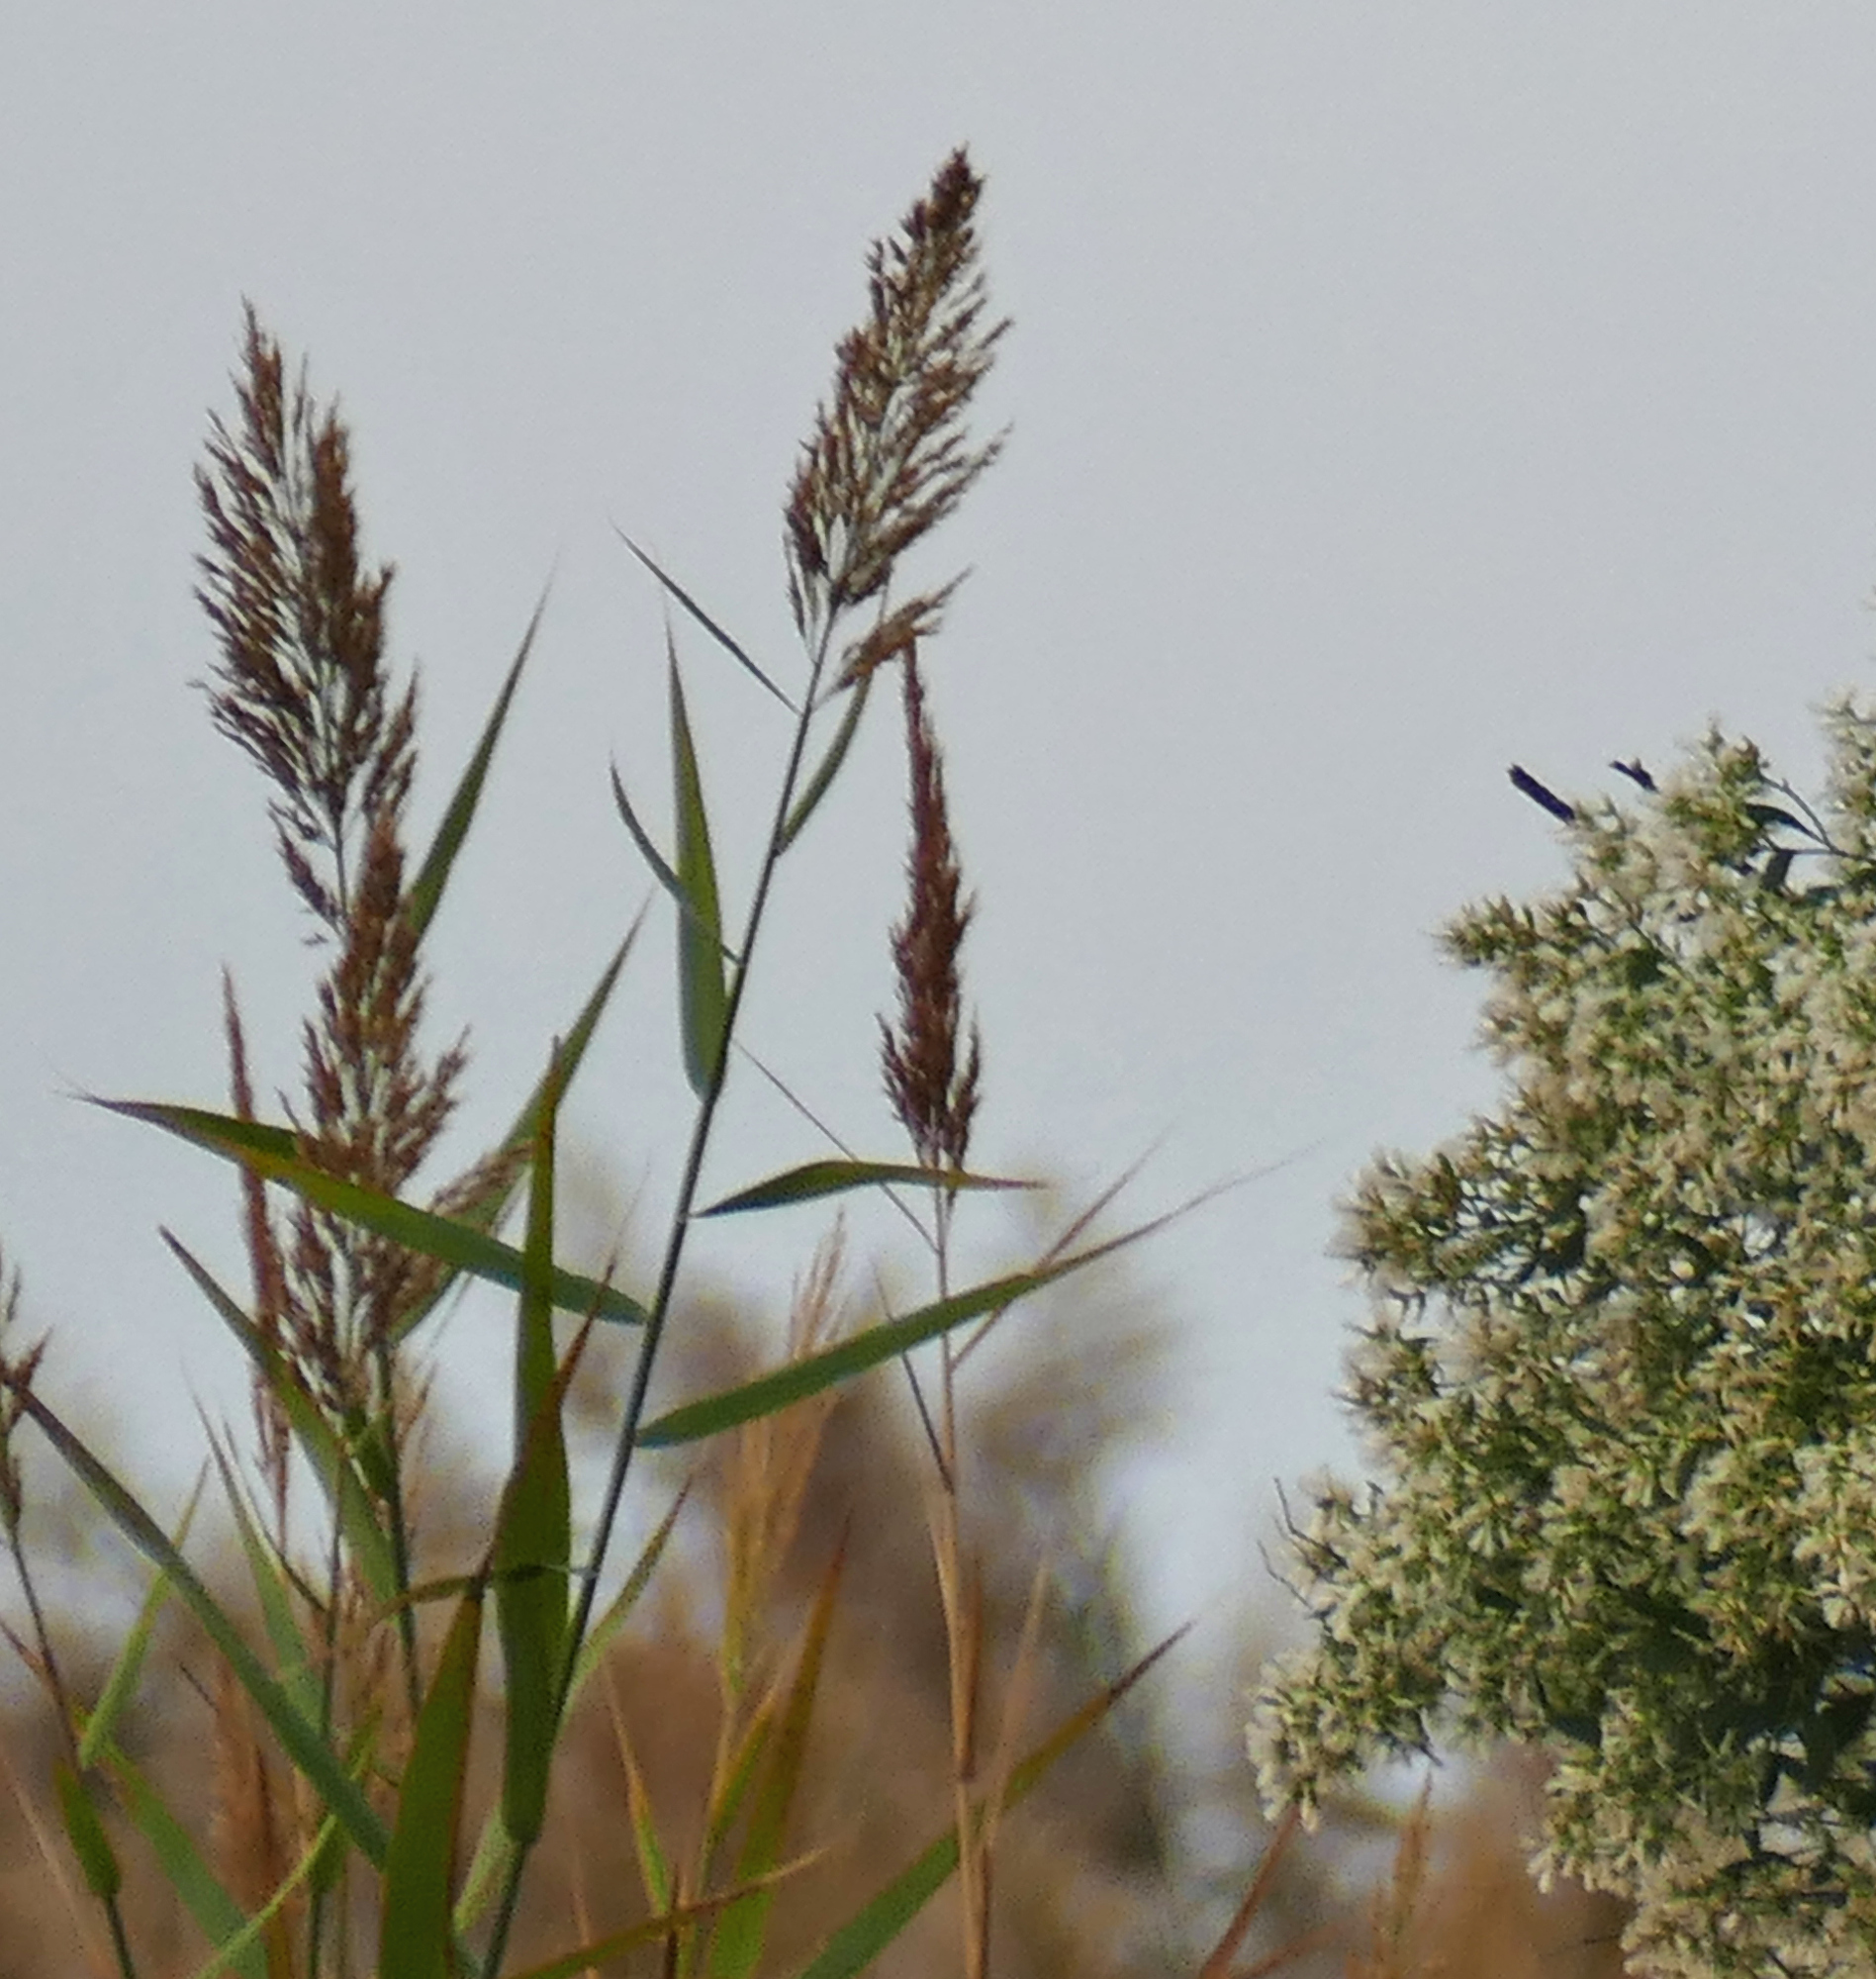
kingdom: Plantae
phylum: Tracheophyta
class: Liliopsida
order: Poales
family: Poaceae
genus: Phragmites
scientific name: Phragmites australis
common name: Common reed
